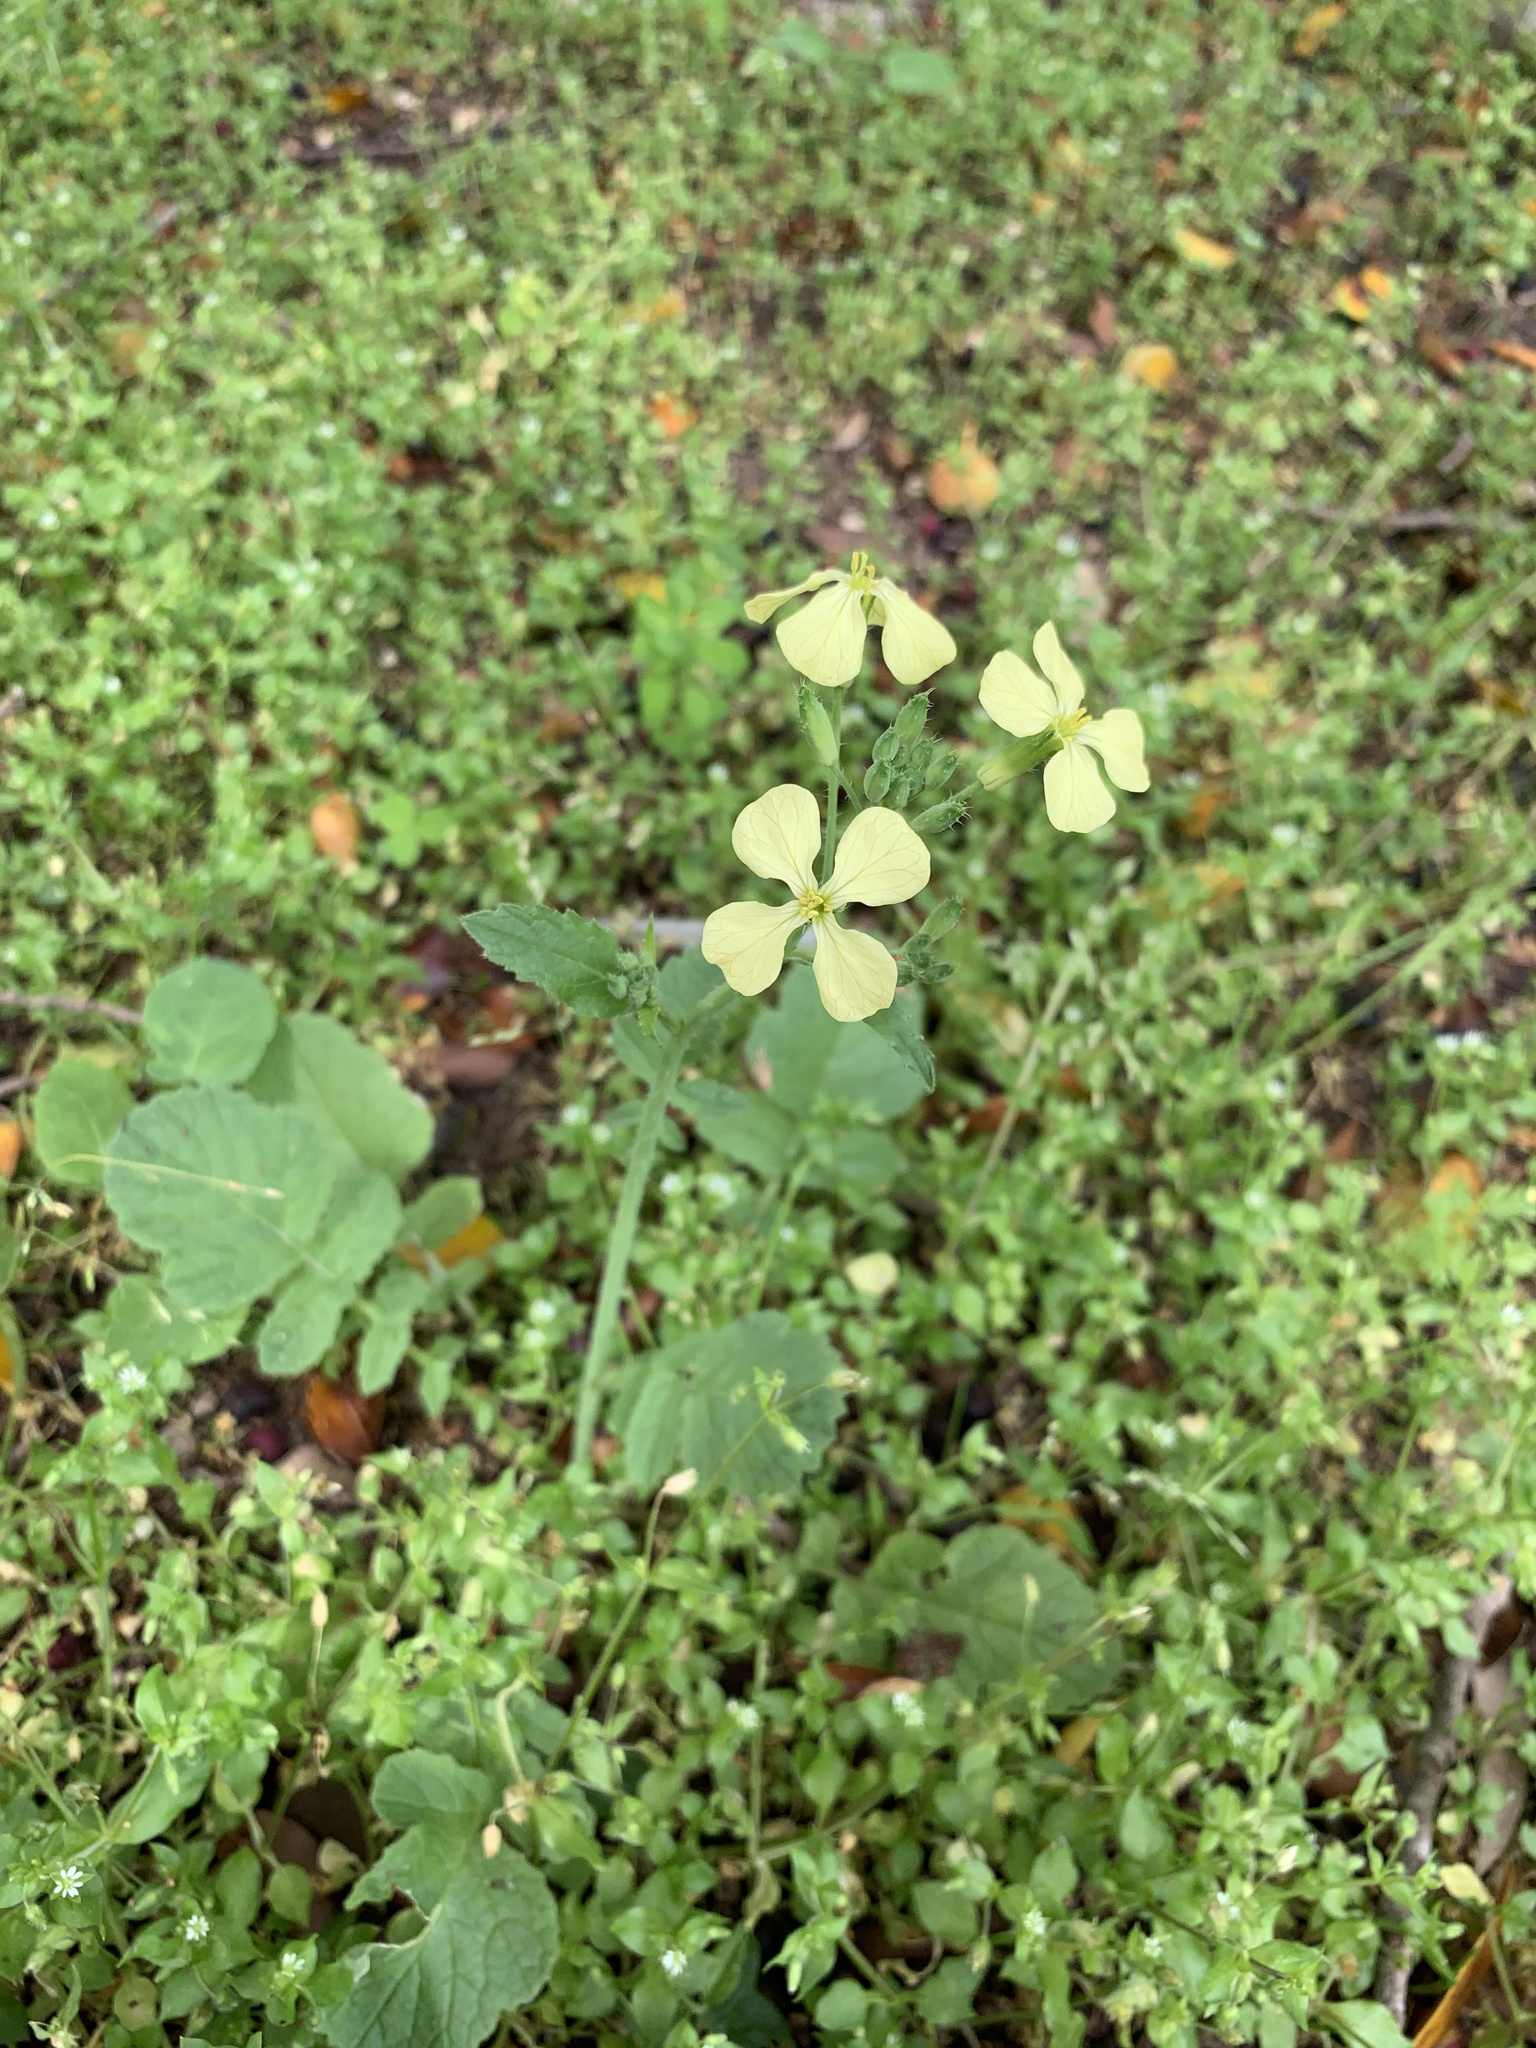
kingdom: Plantae
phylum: Tracheophyta
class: Magnoliopsida
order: Brassicales
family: Brassicaceae
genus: Raphanus
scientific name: Raphanus raphanistrum
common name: Wild radish
